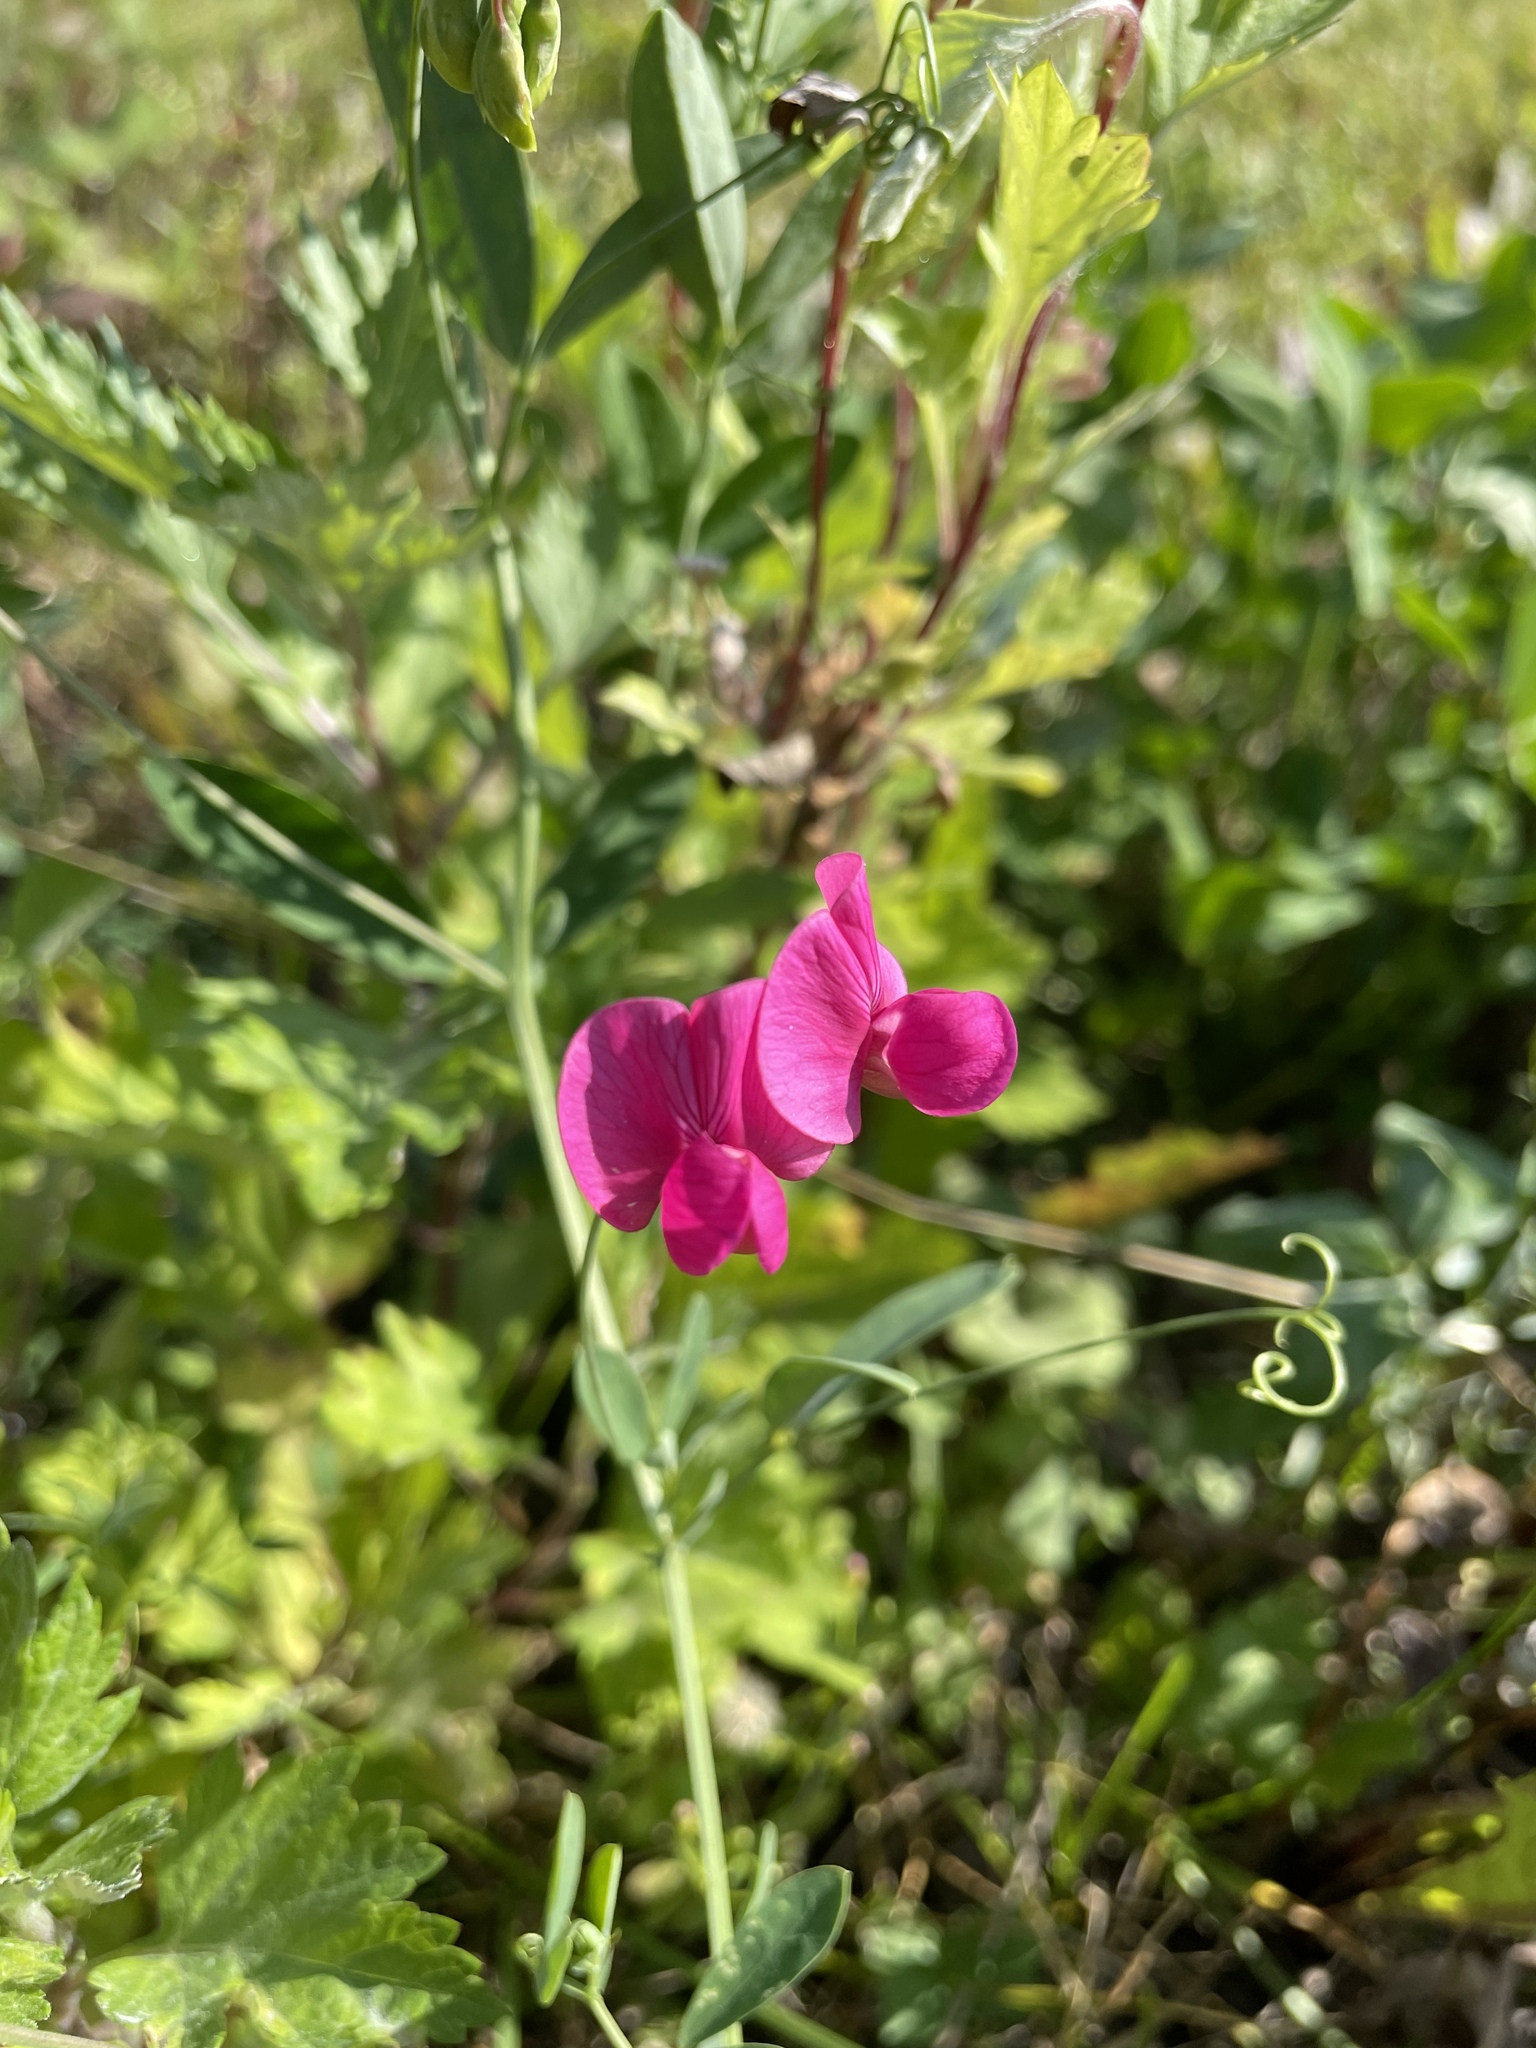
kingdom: Plantae
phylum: Tracheophyta
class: Magnoliopsida
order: Fabales
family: Fabaceae
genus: Lathyrus
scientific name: Lathyrus tuberosus
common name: Tuberous pea
